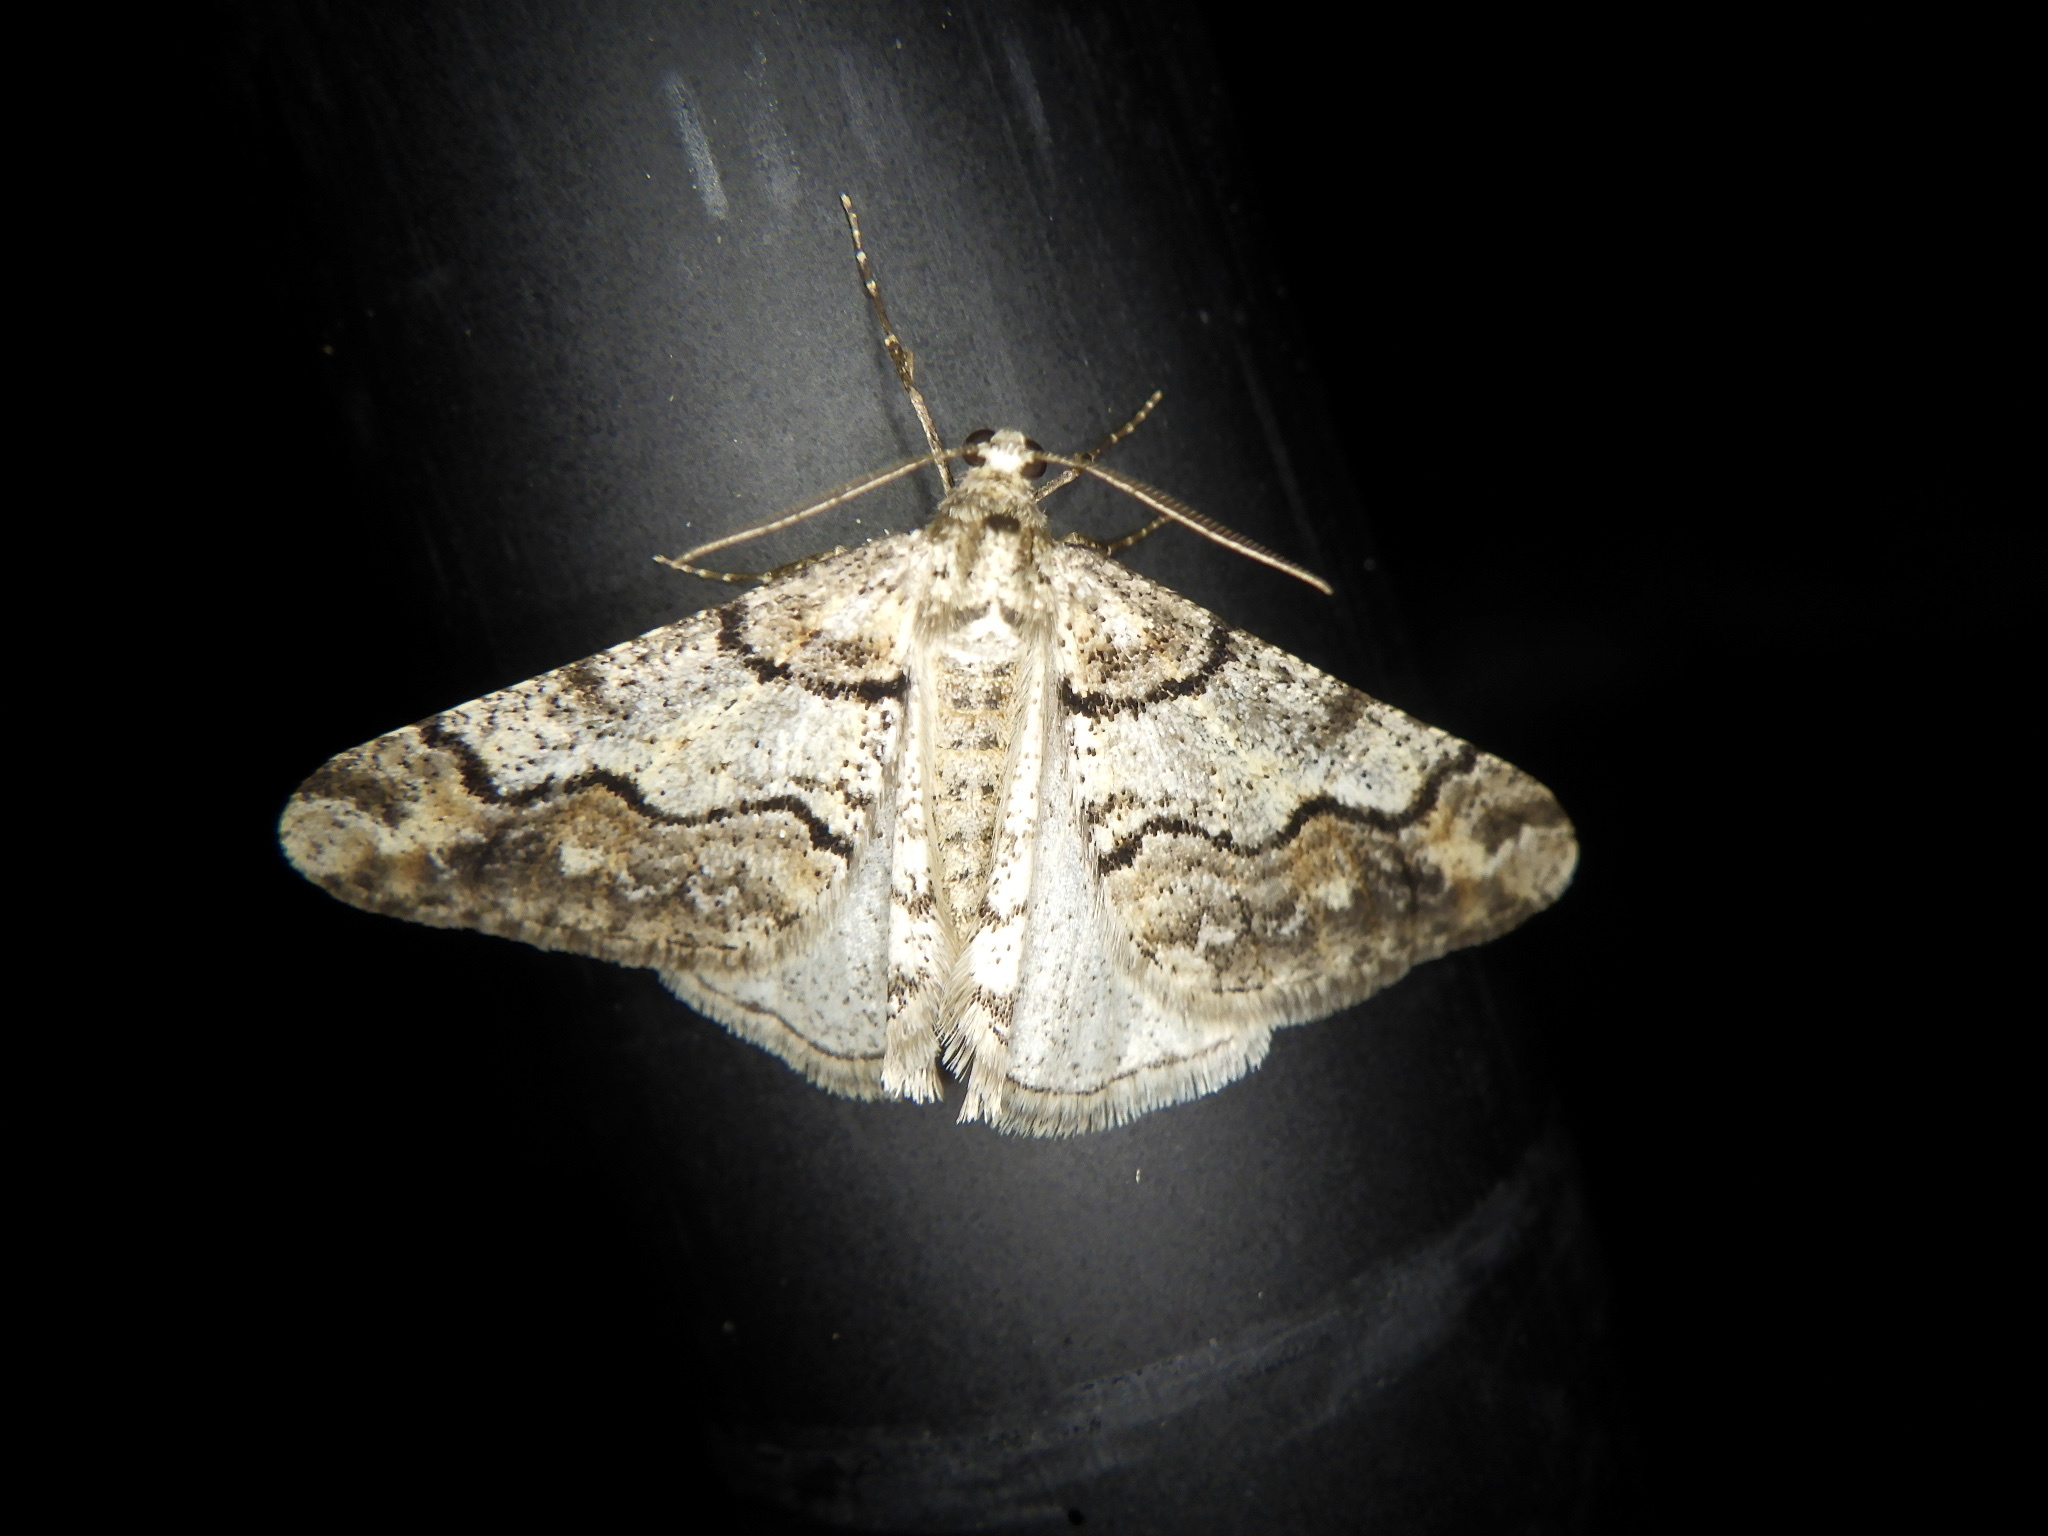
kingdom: Animalia
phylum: Arthropoda
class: Insecta
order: Lepidoptera
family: Geometridae
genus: Agriopis
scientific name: Agriopis dira
